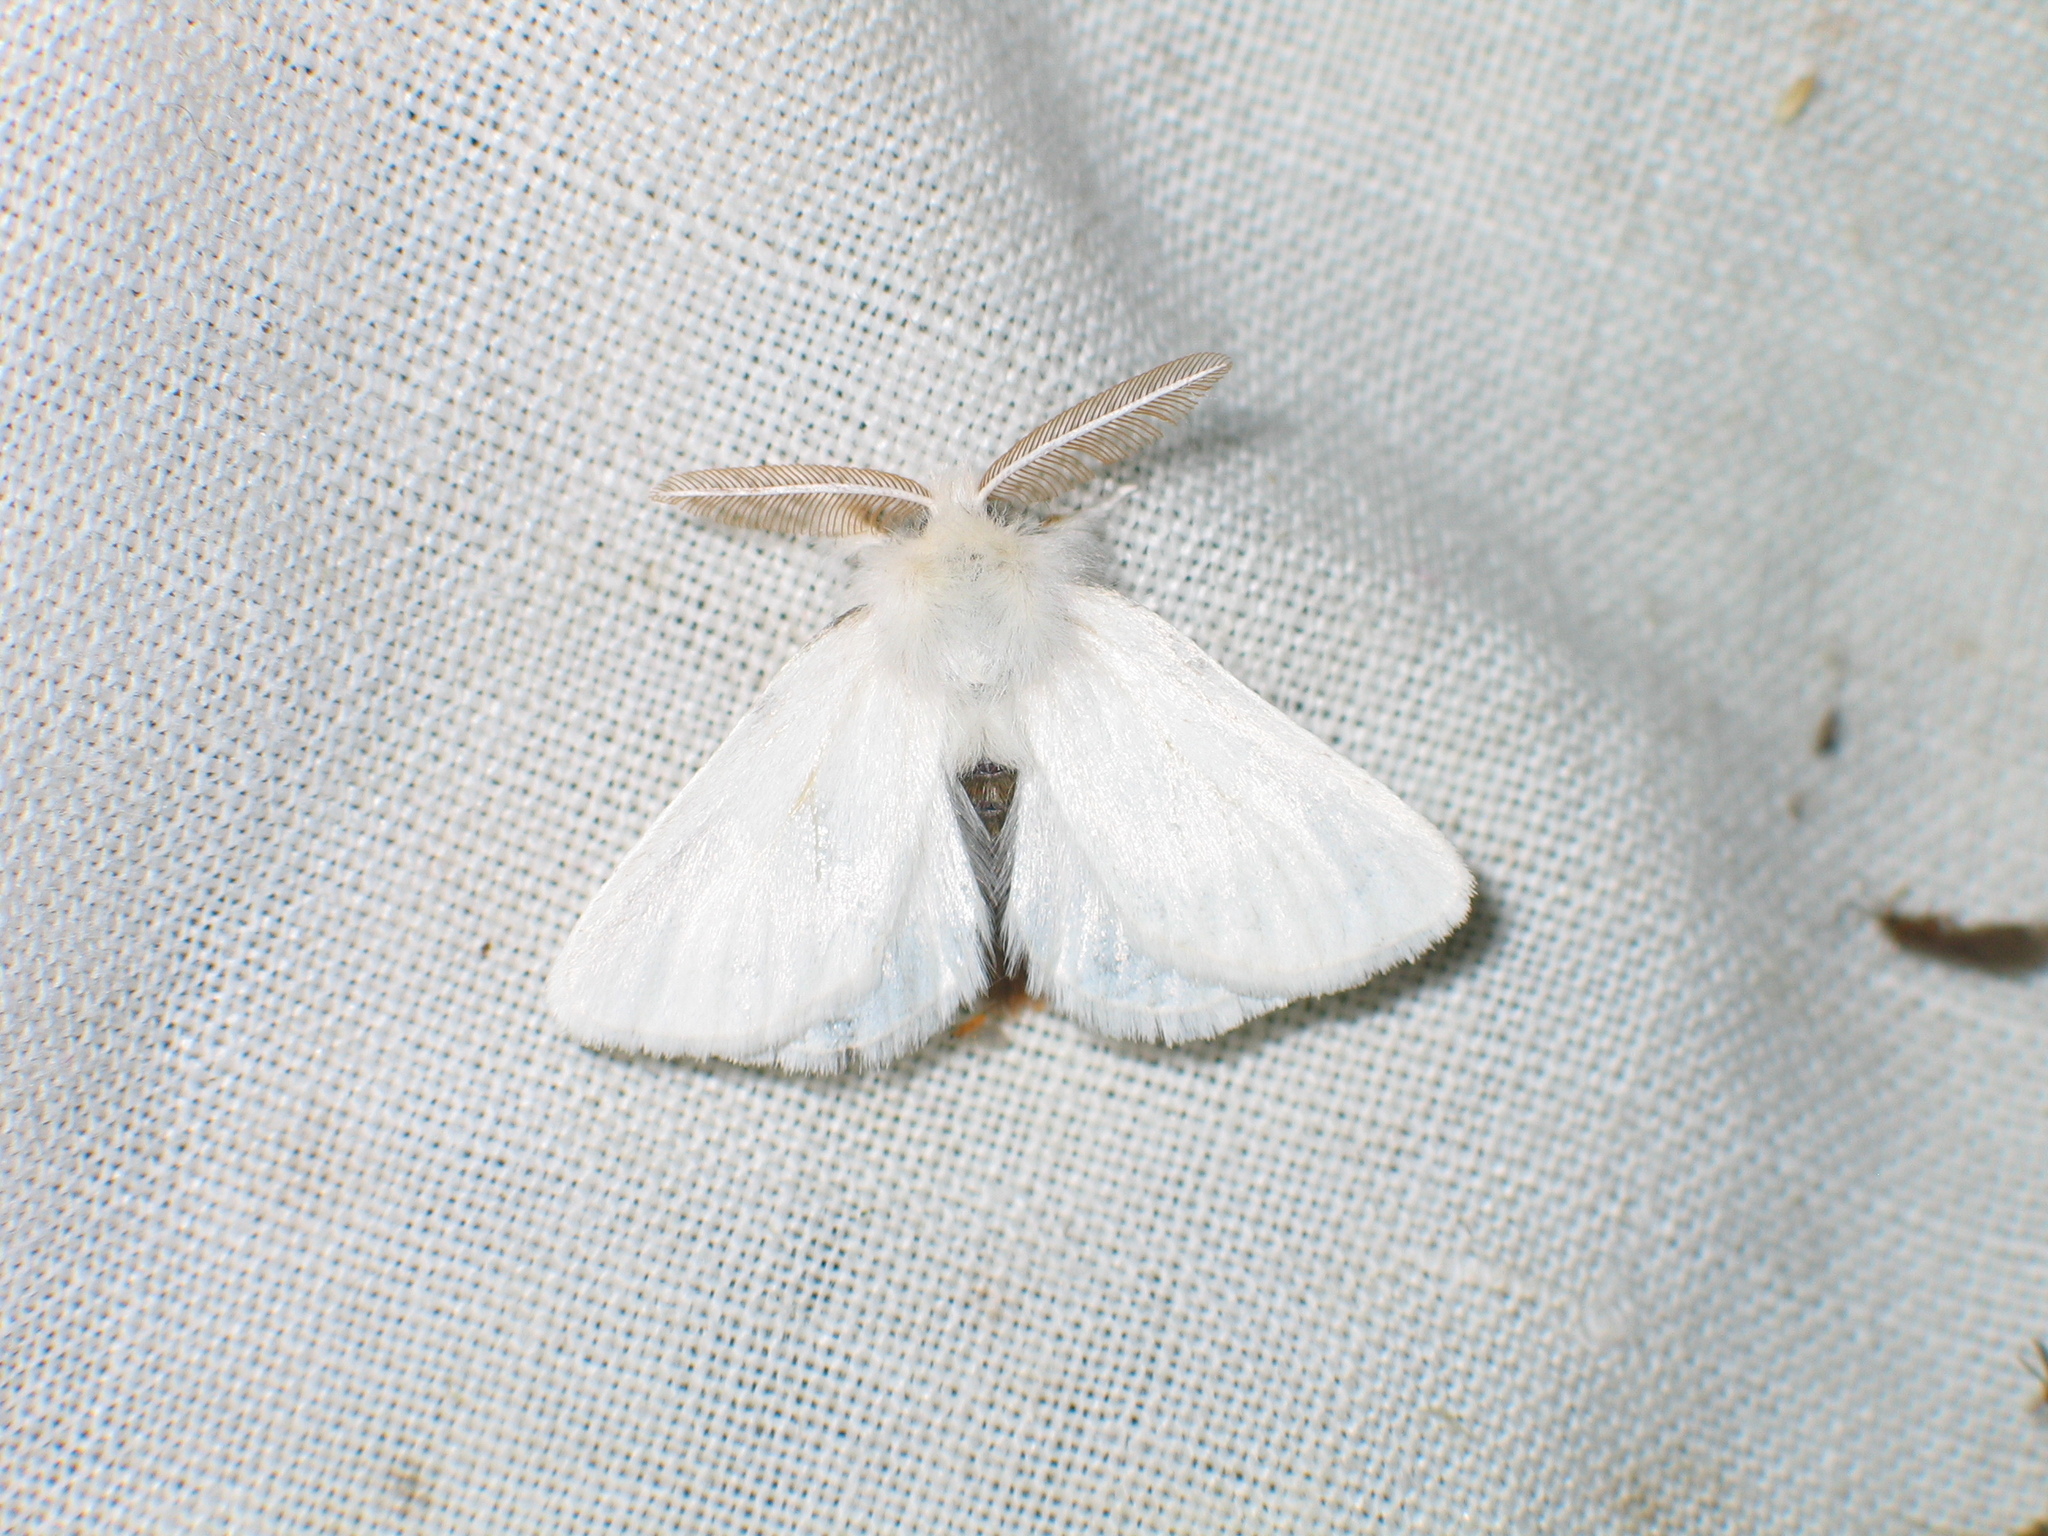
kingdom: Animalia
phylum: Arthropoda
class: Insecta
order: Lepidoptera
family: Erebidae
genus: Euproctis
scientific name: Euproctis chrysorrhoea
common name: Brown-tail
